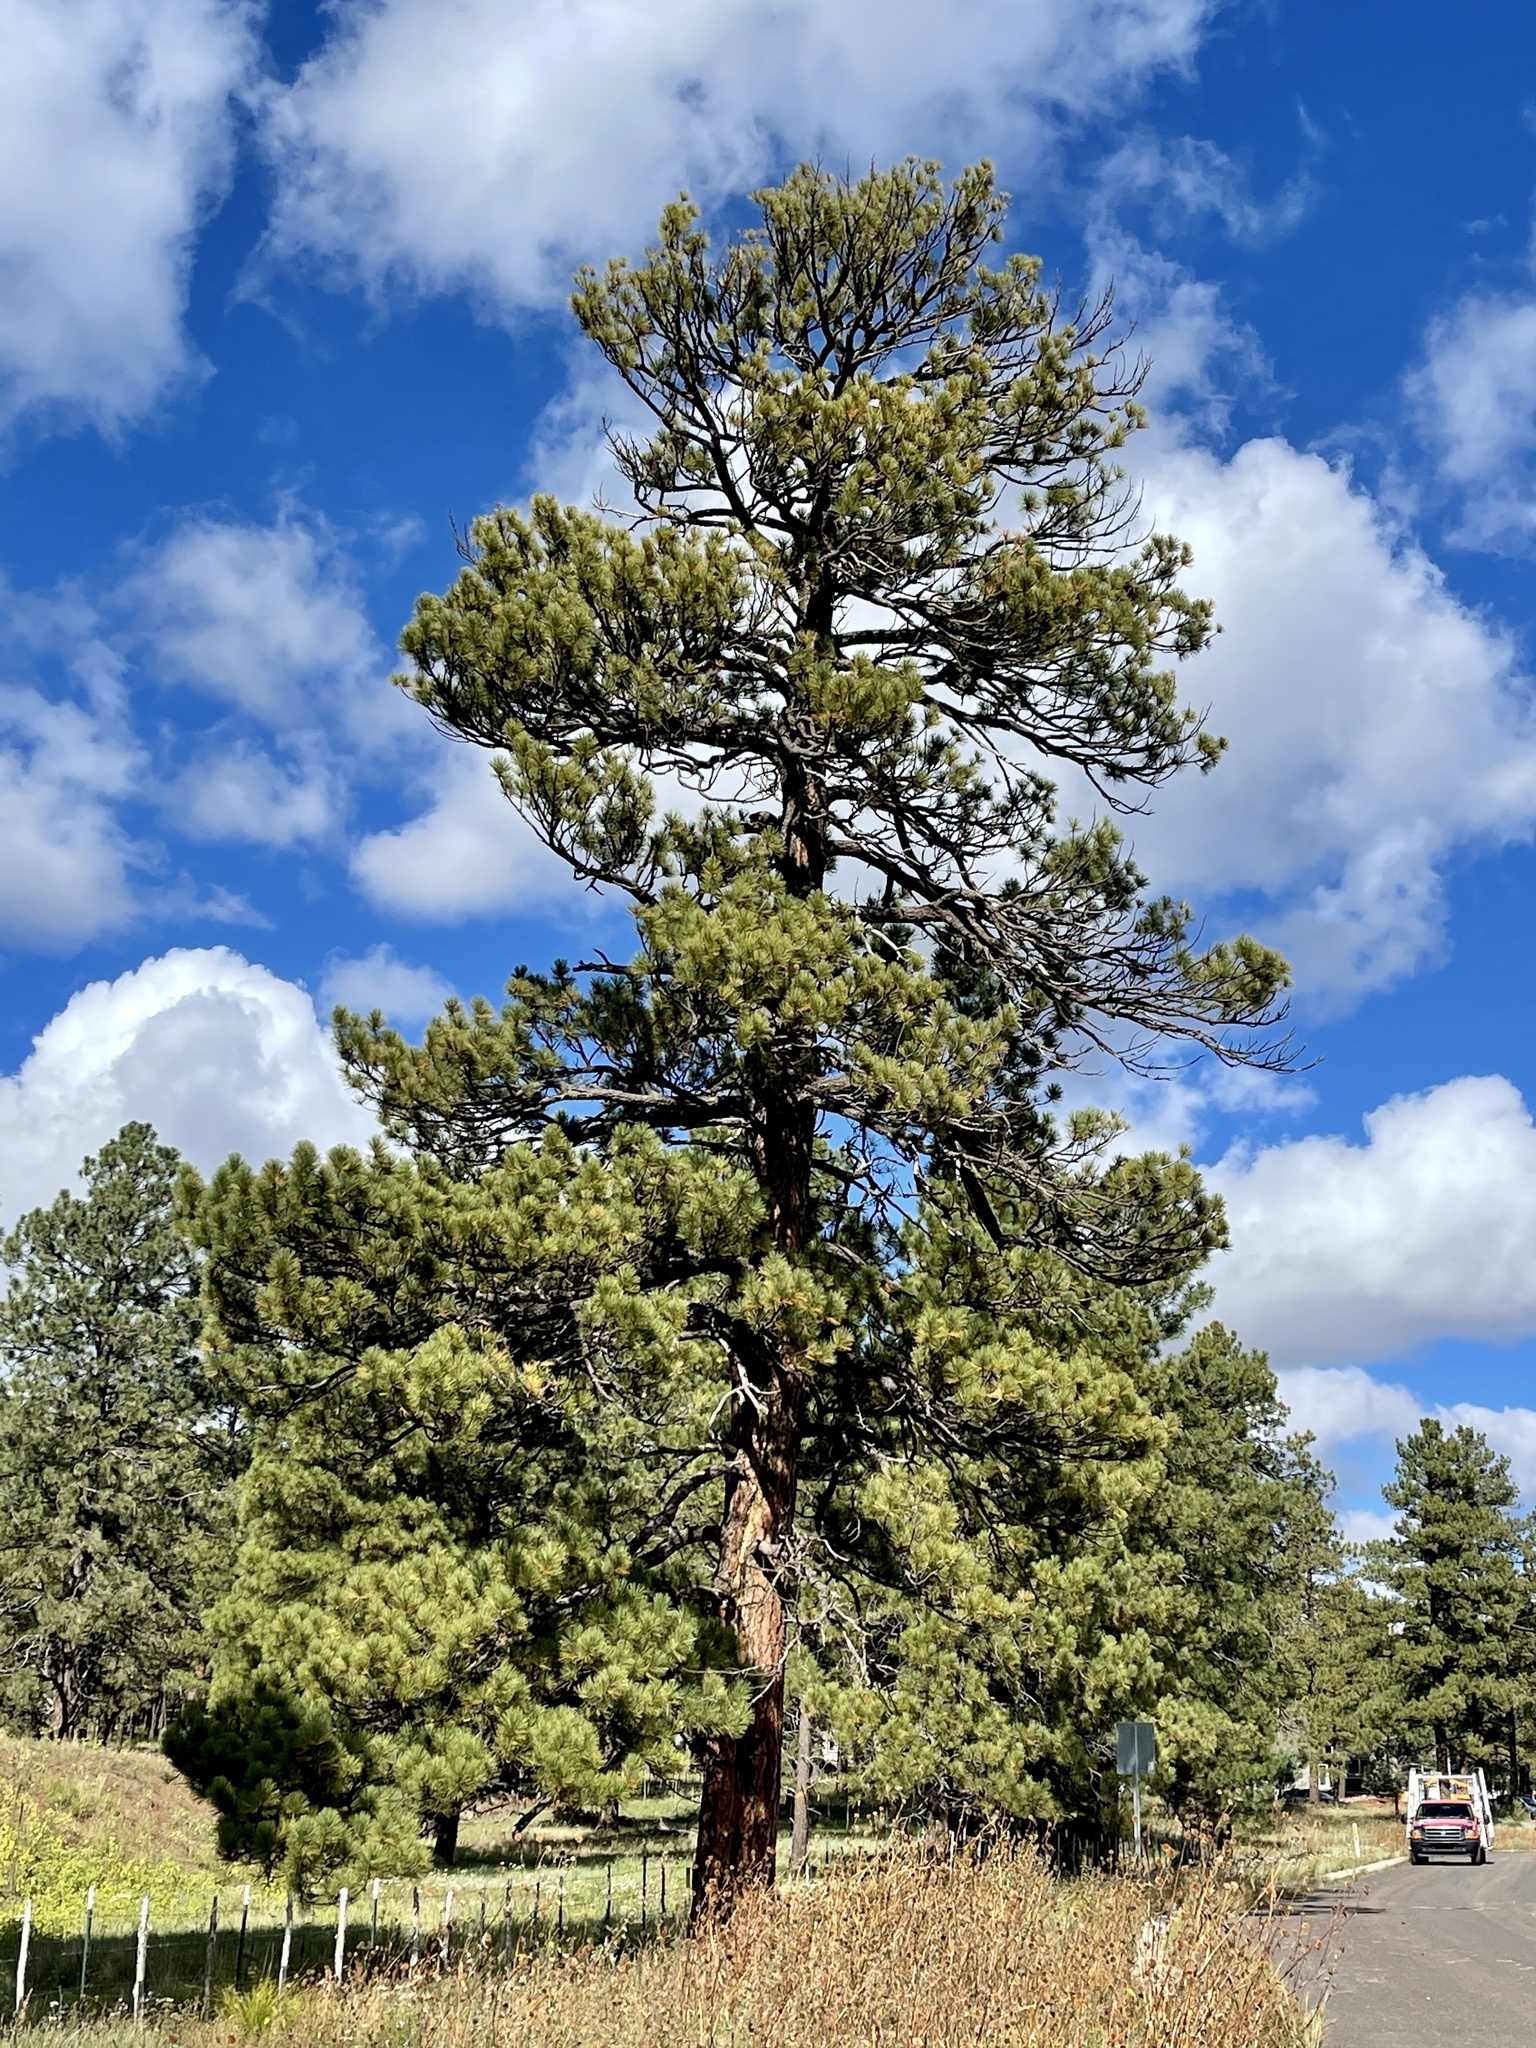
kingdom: Plantae
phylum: Tracheophyta
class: Pinopsida
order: Pinales
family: Pinaceae
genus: Pinus
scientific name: Pinus ponderosa
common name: Western yellow-pine
